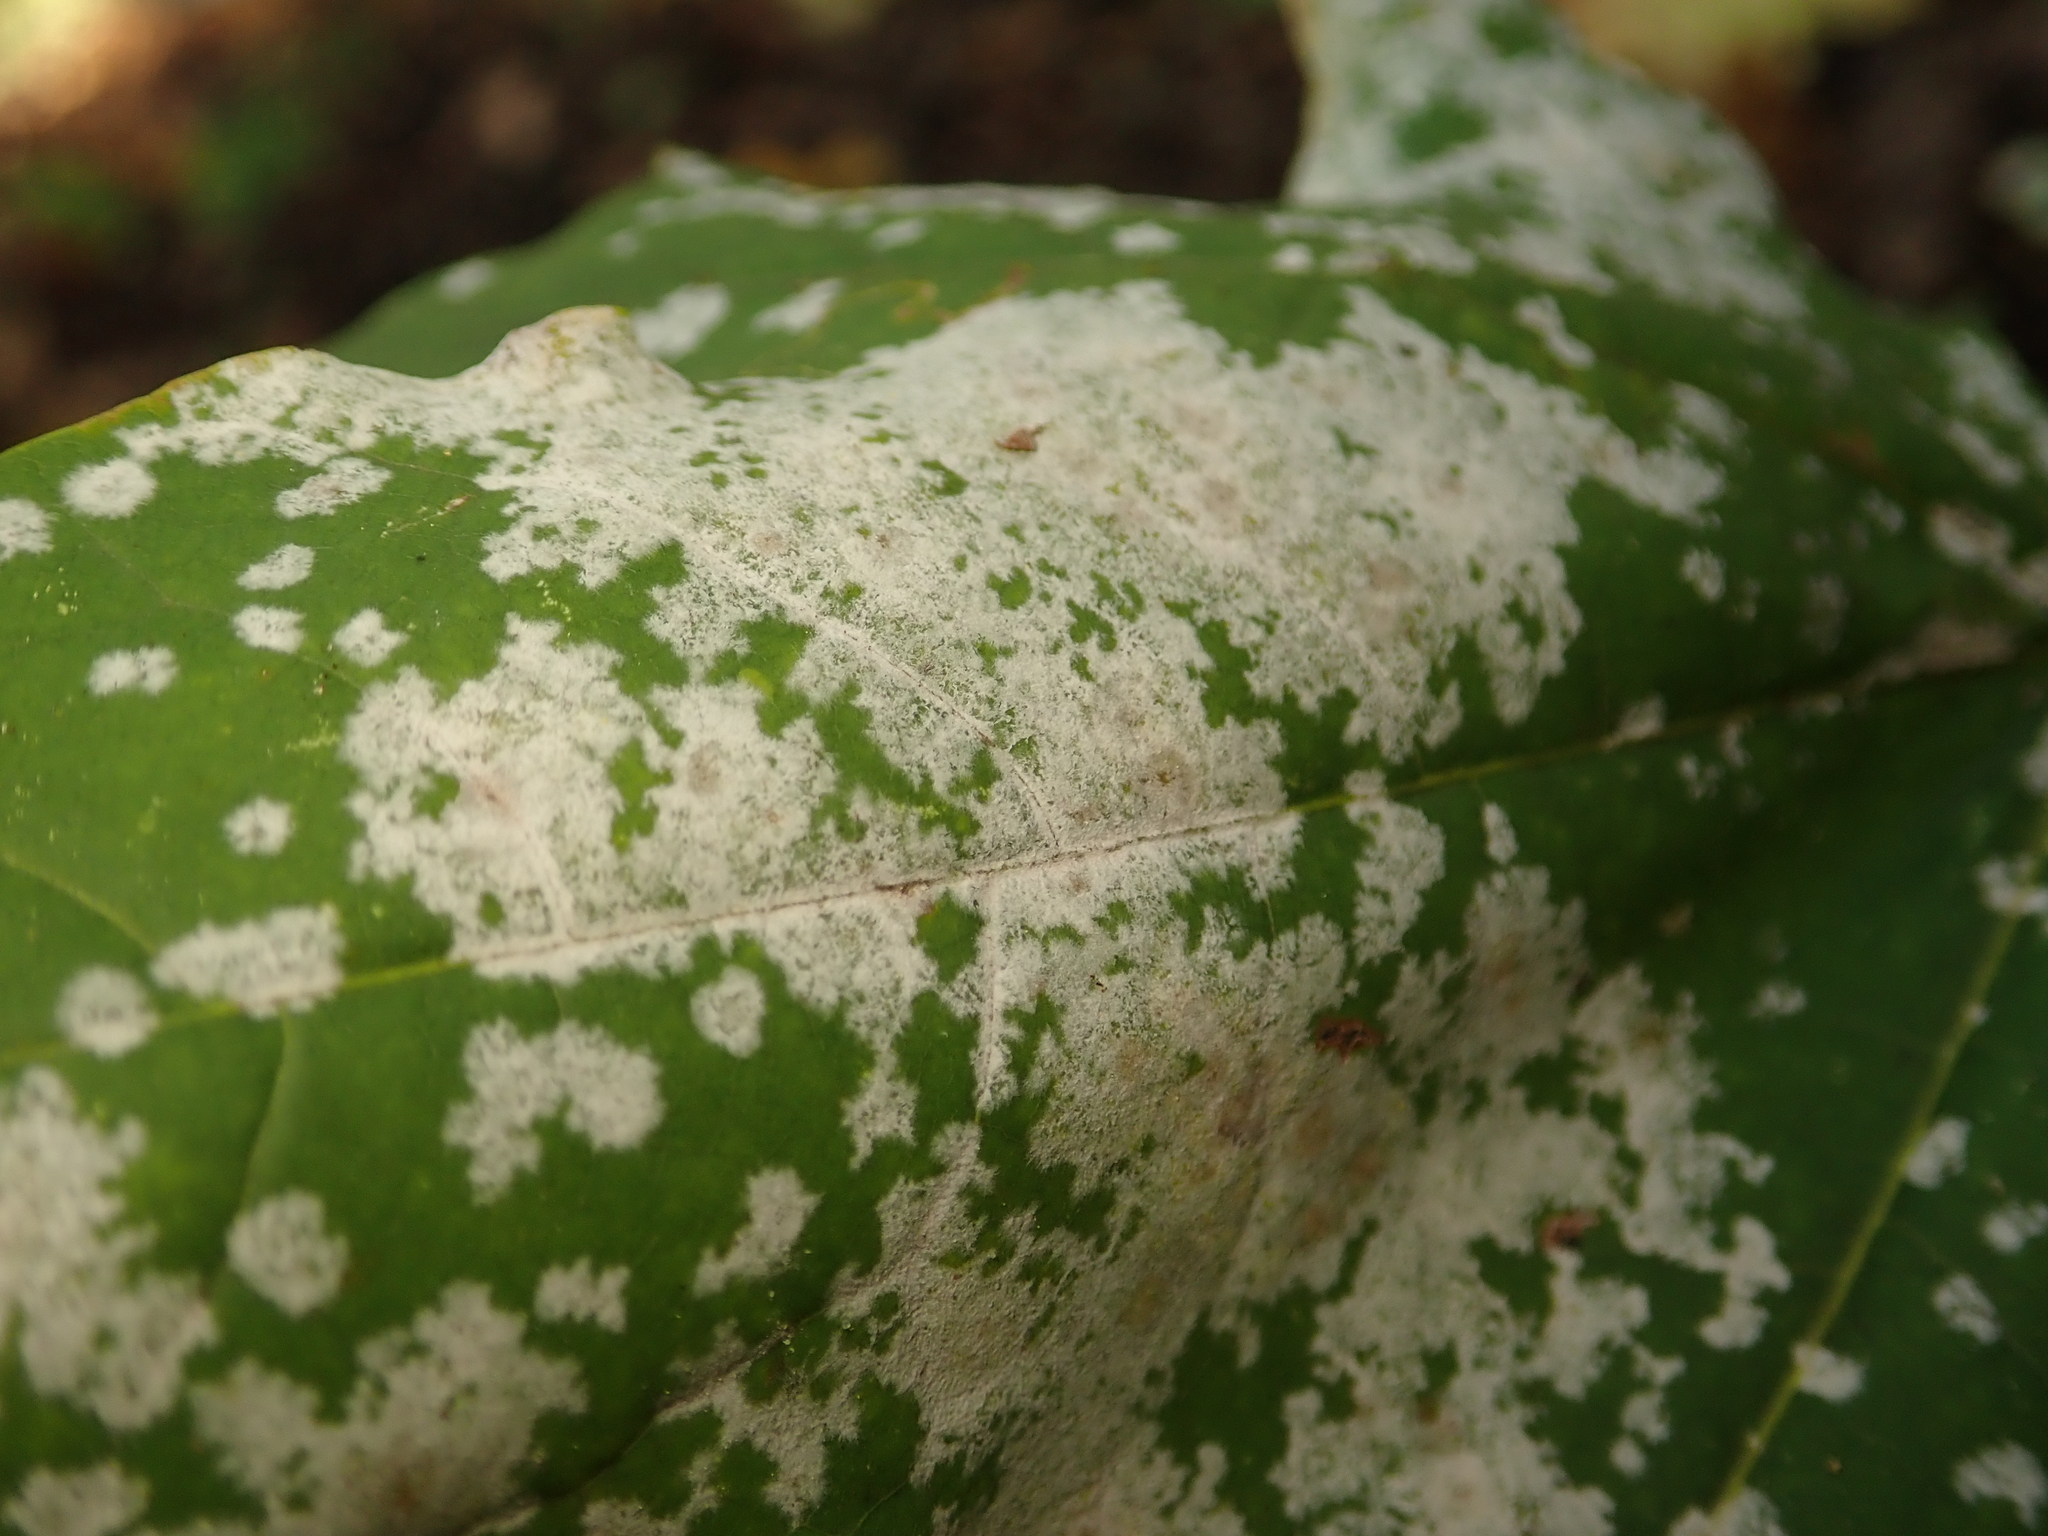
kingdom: Fungi
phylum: Ascomycota
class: Leotiomycetes
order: Helotiales
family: Erysiphaceae
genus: Sawadaea
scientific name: Sawadaea tulasnei
